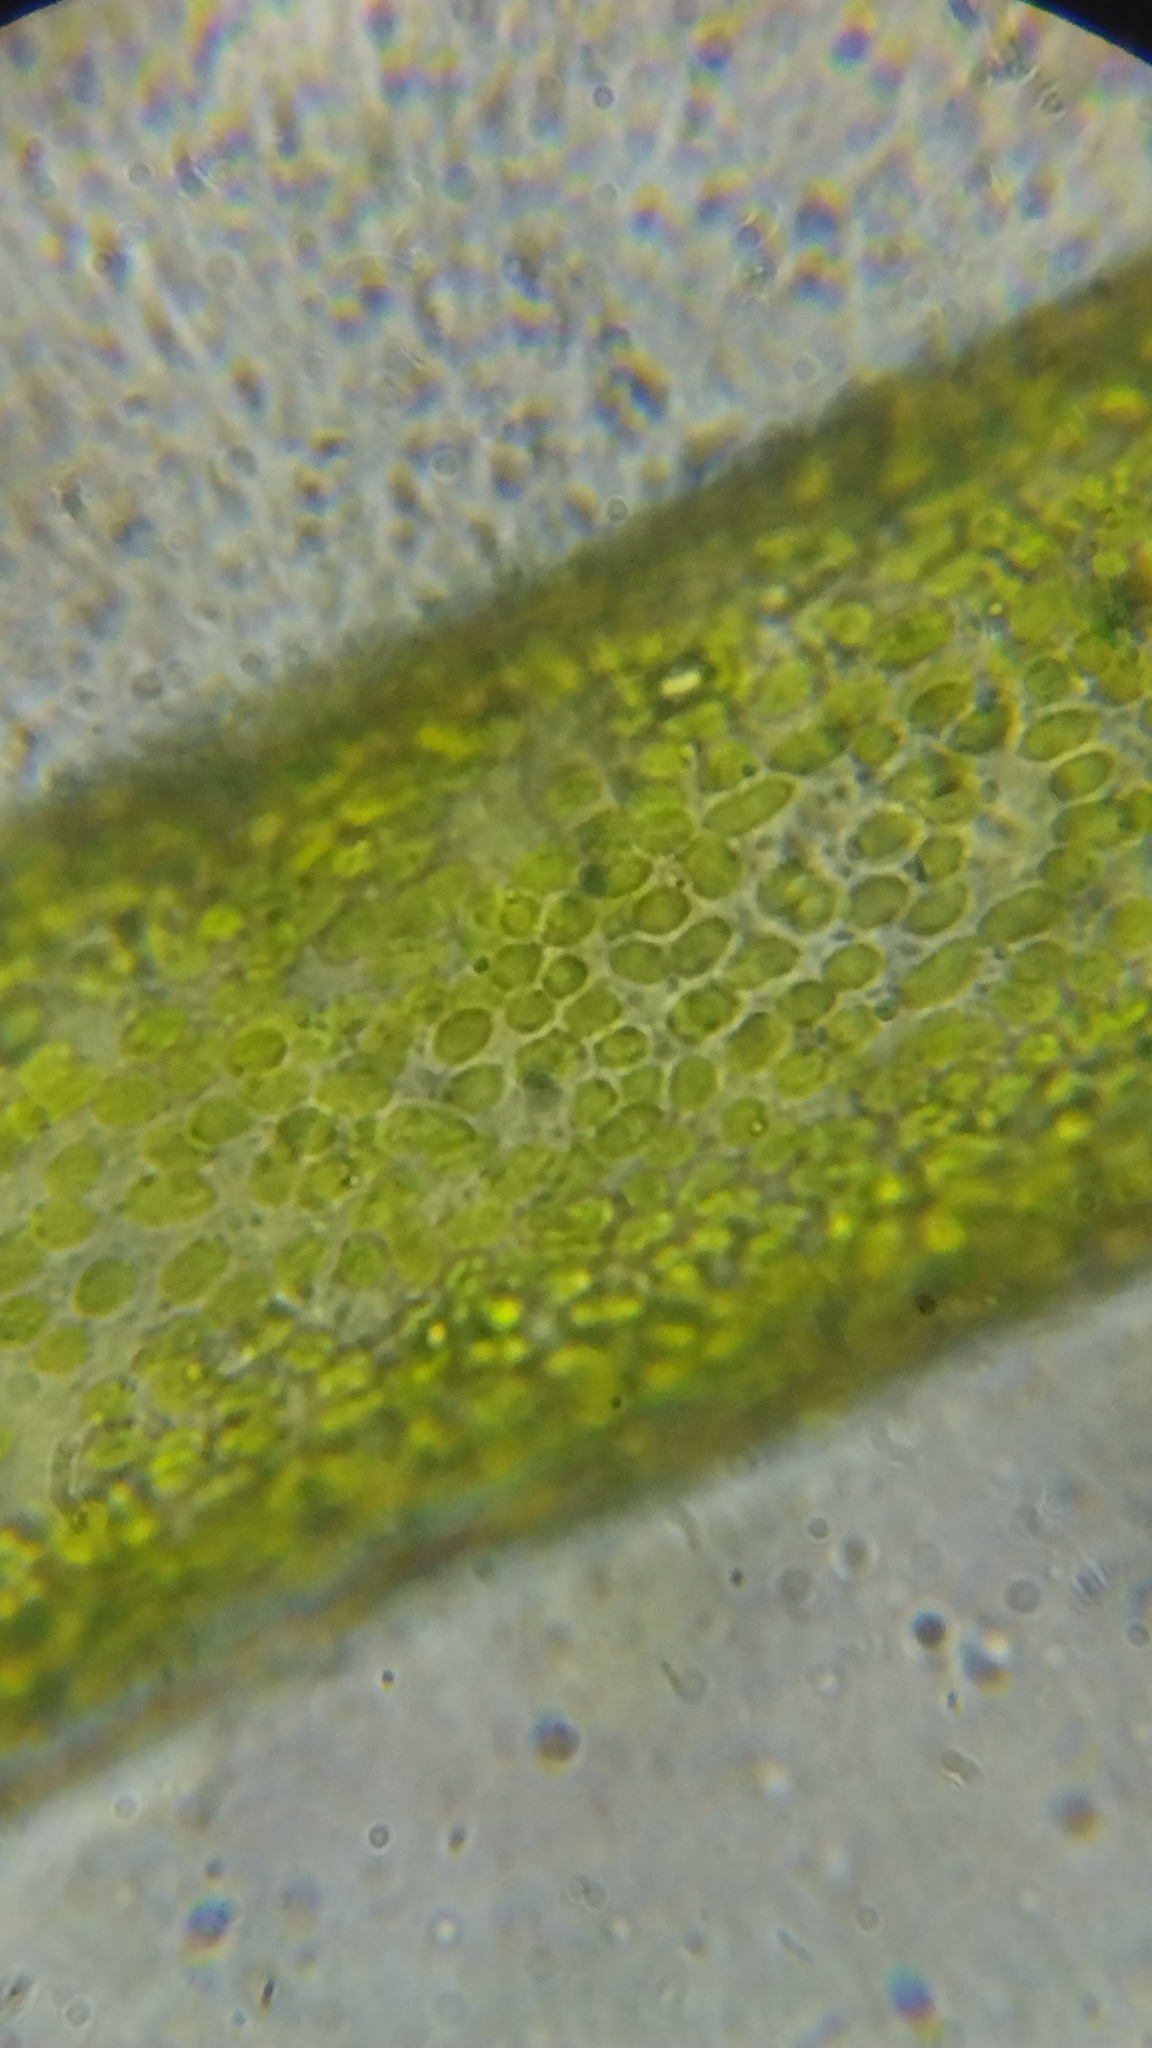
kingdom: Chromista
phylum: Ochrophyta
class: Xanthophyceae
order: Vaucheriales
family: Vaucheriaceae
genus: Vaucheria
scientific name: Vaucheria
